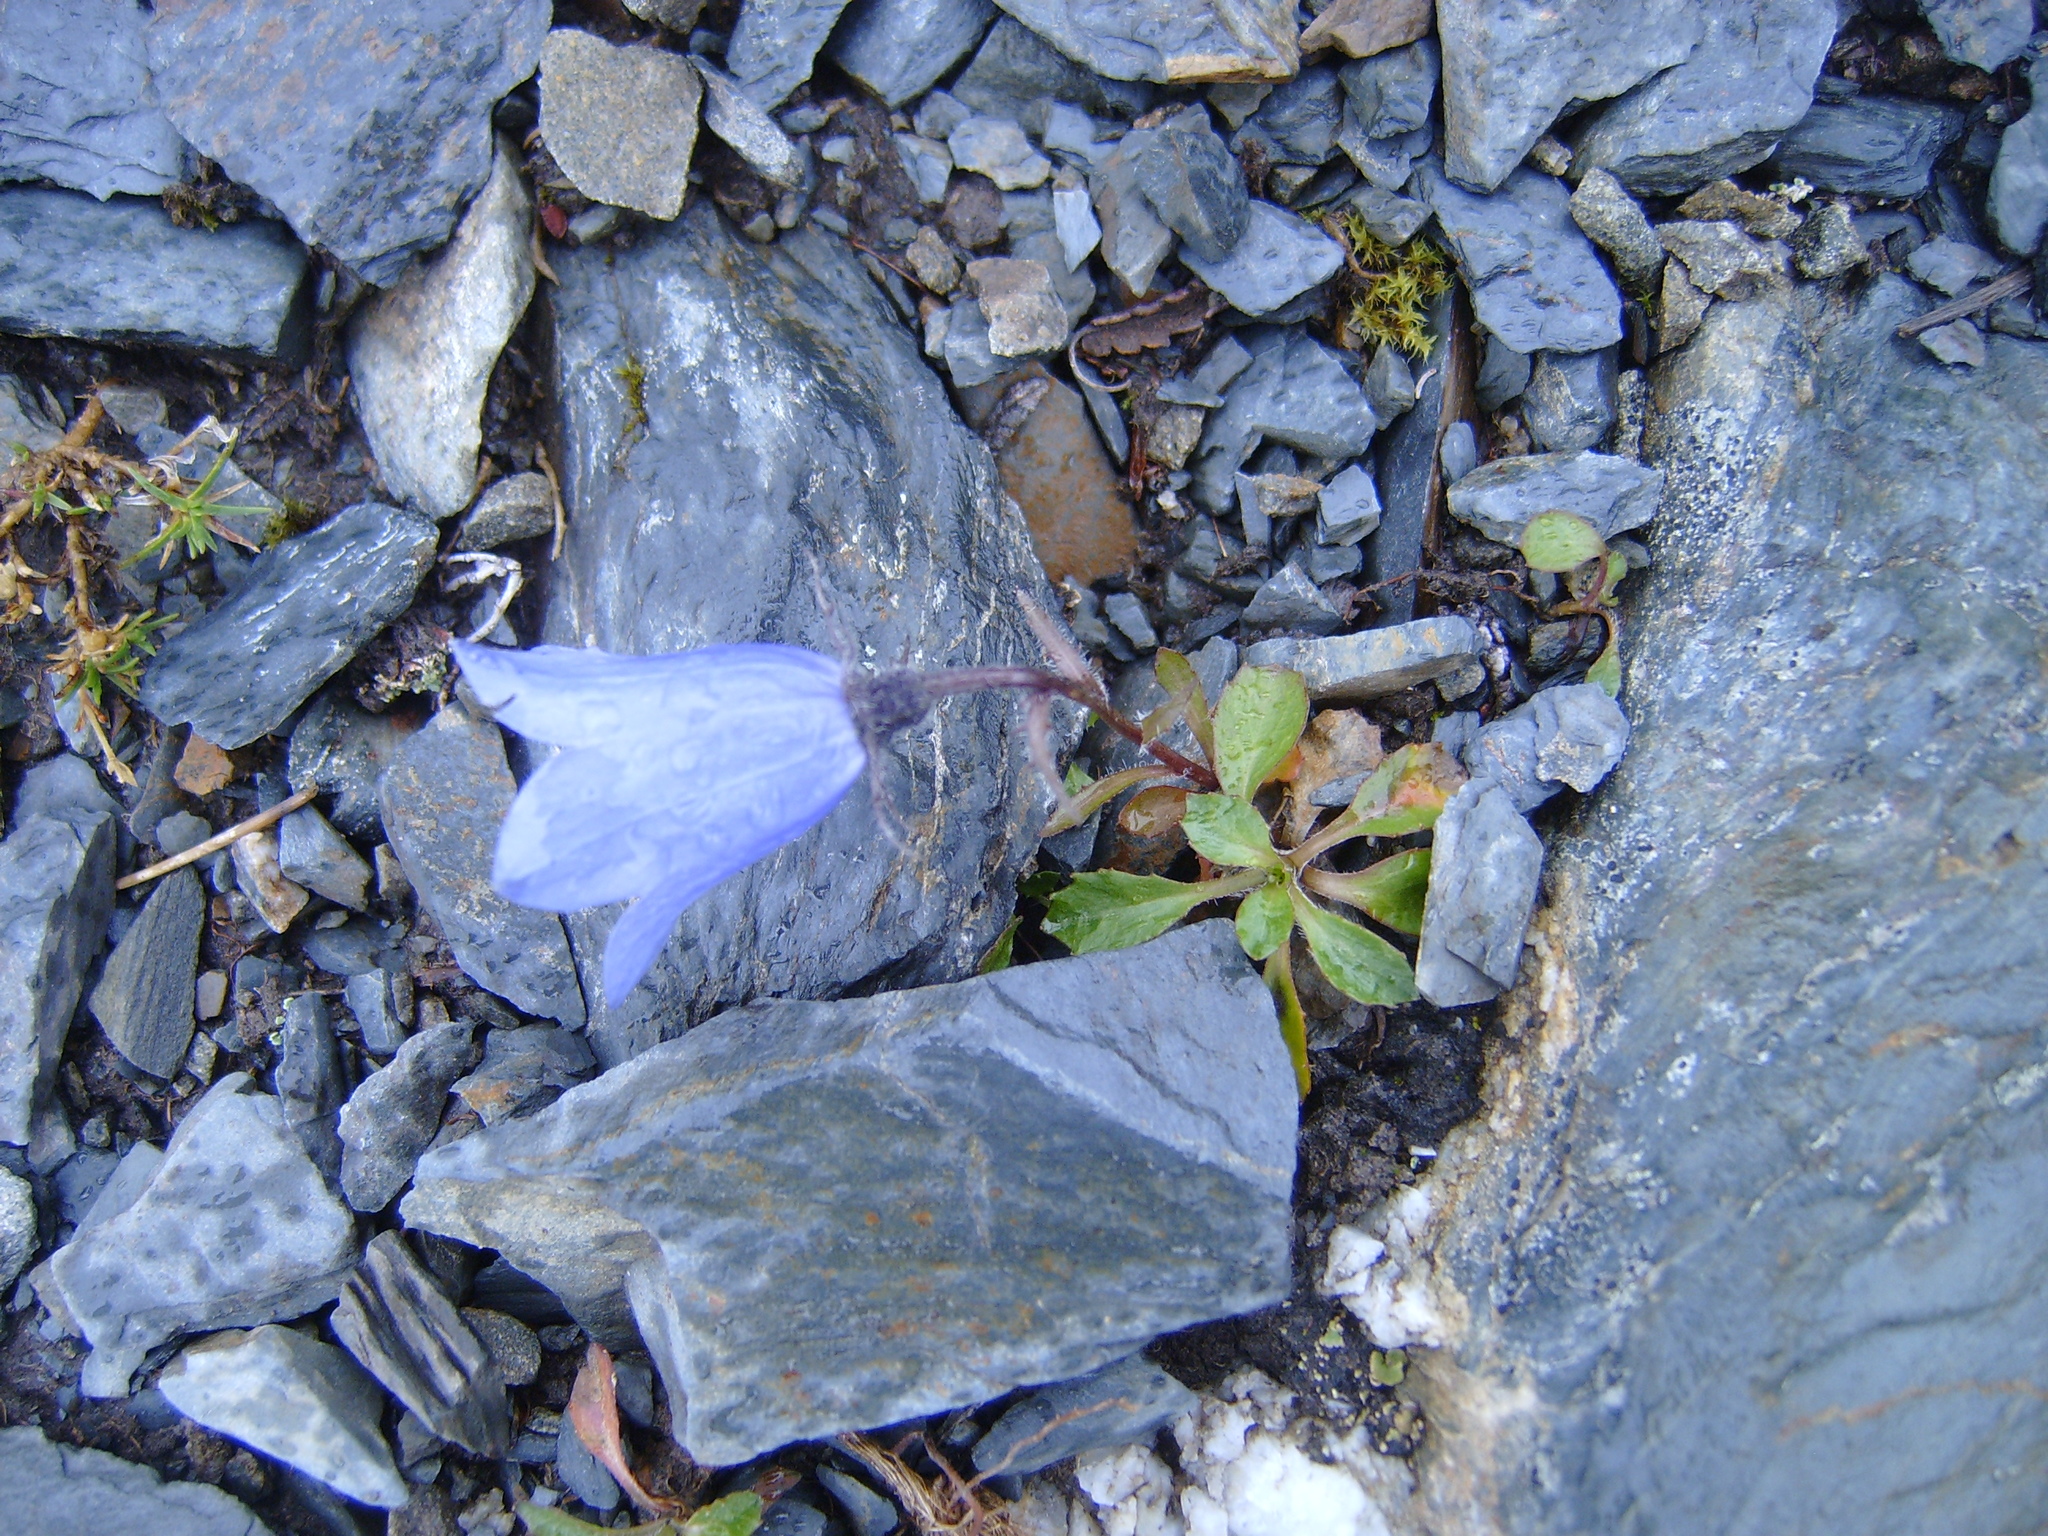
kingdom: Plantae
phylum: Tracheophyta
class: Magnoliopsida
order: Asterales
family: Campanulaceae
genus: Campanula
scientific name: Campanula lasiocarpa
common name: Mountain harebell
